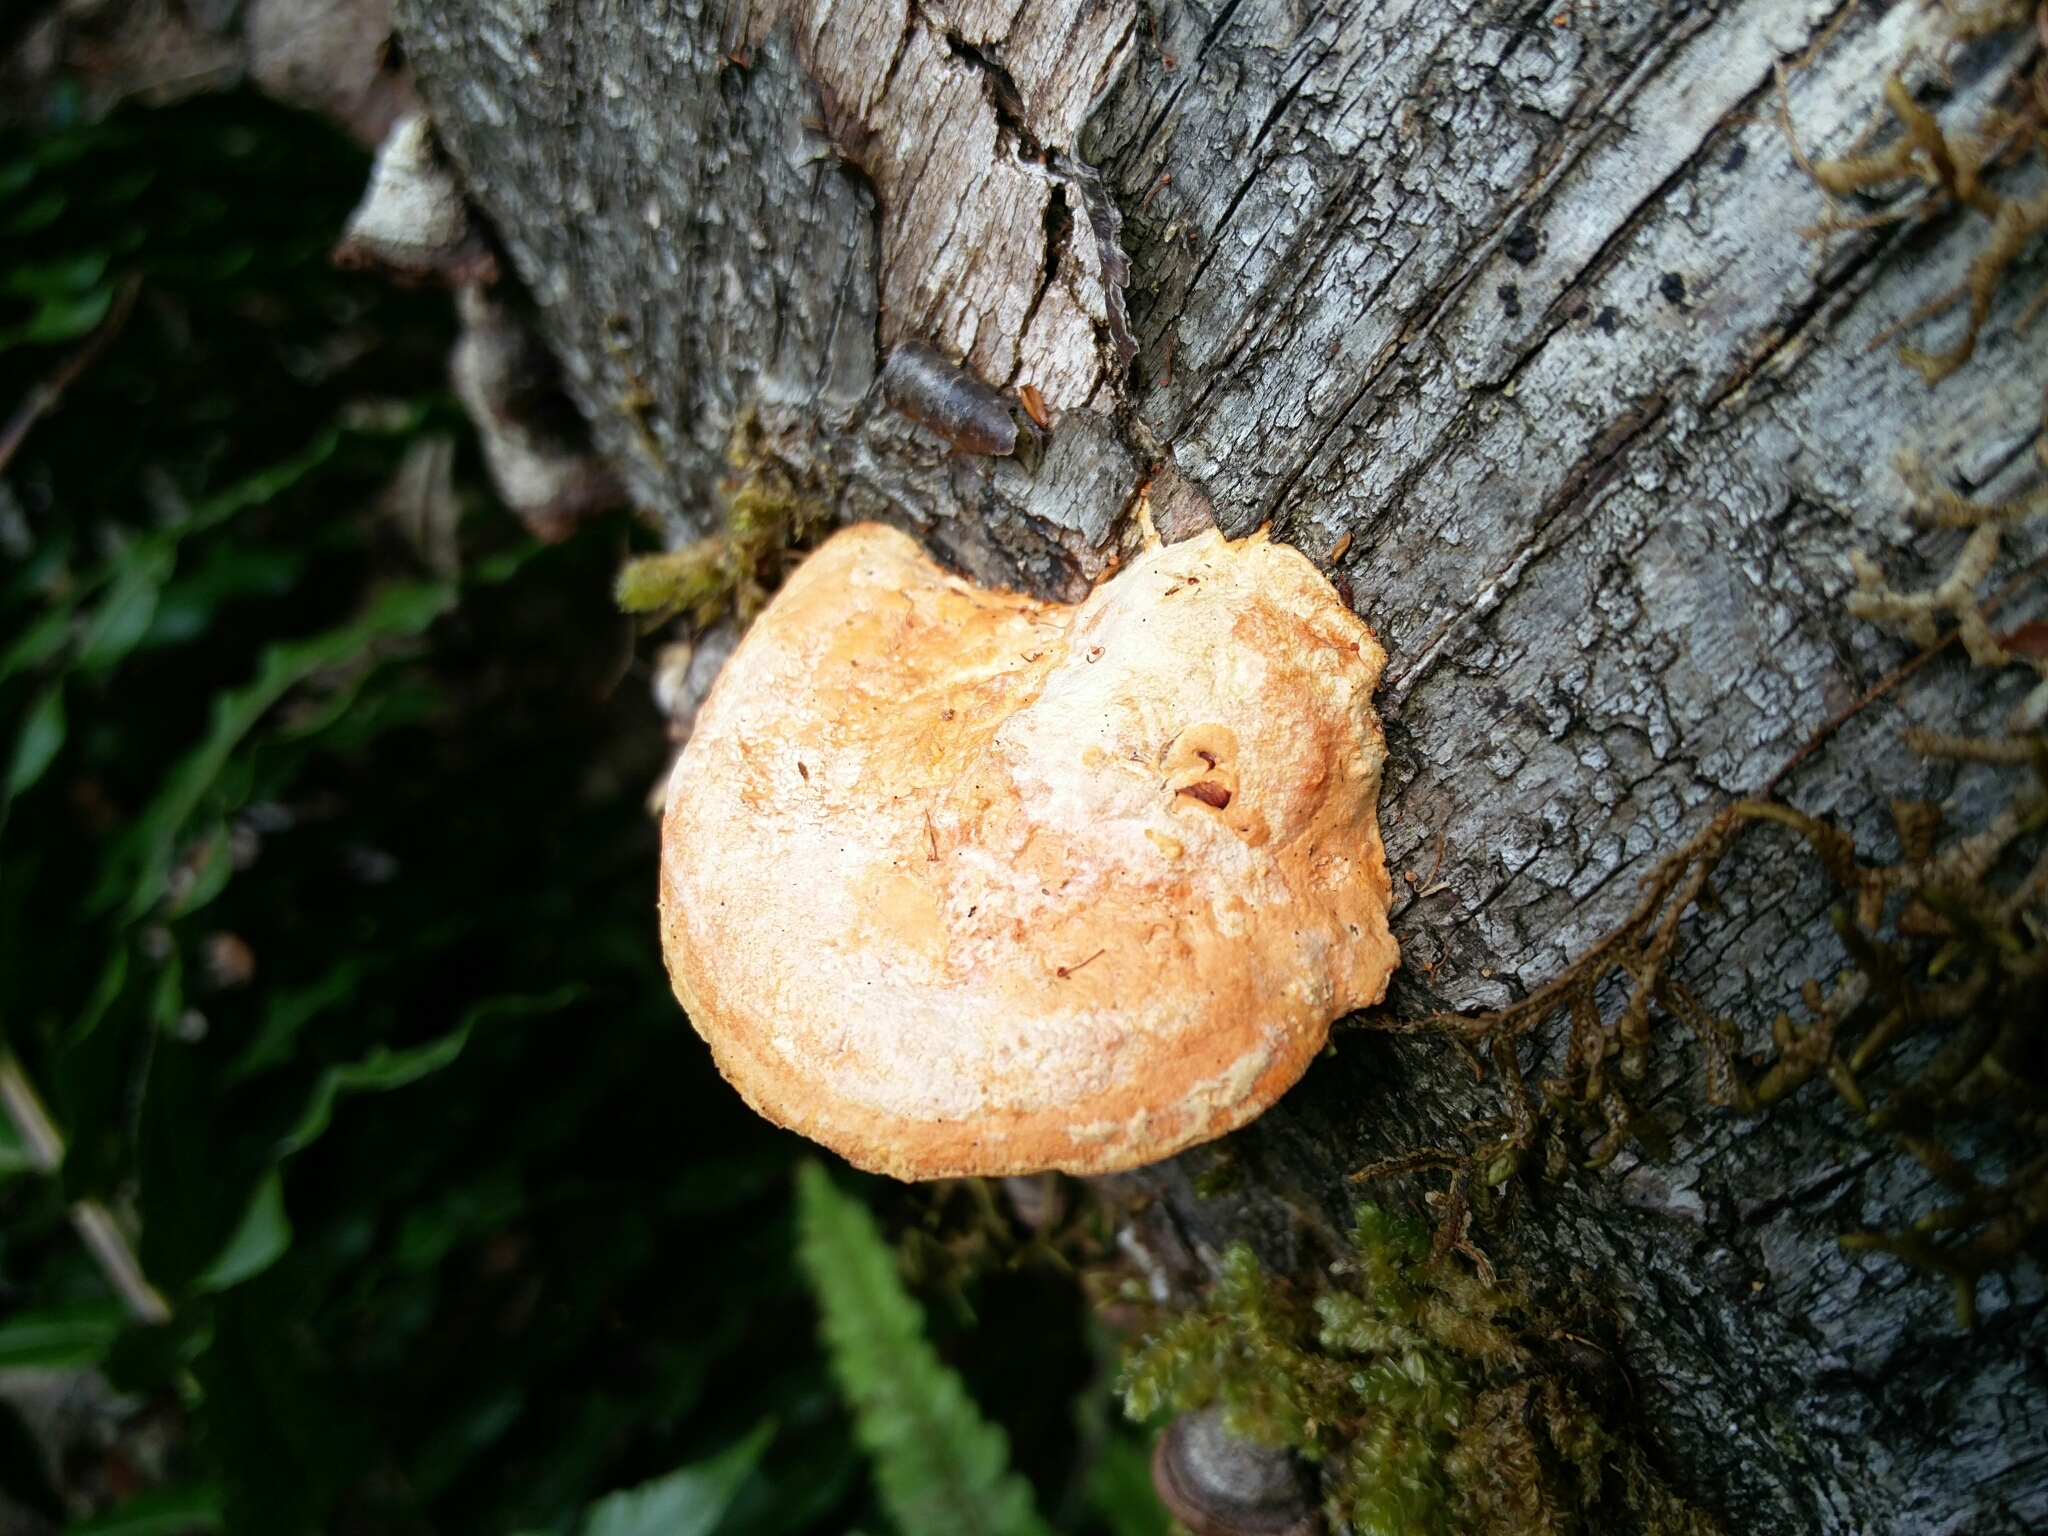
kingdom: Fungi
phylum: Basidiomycota
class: Agaricomycetes
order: Polyporales
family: Polyporaceae
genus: Trametes
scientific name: Trametes coccinea
